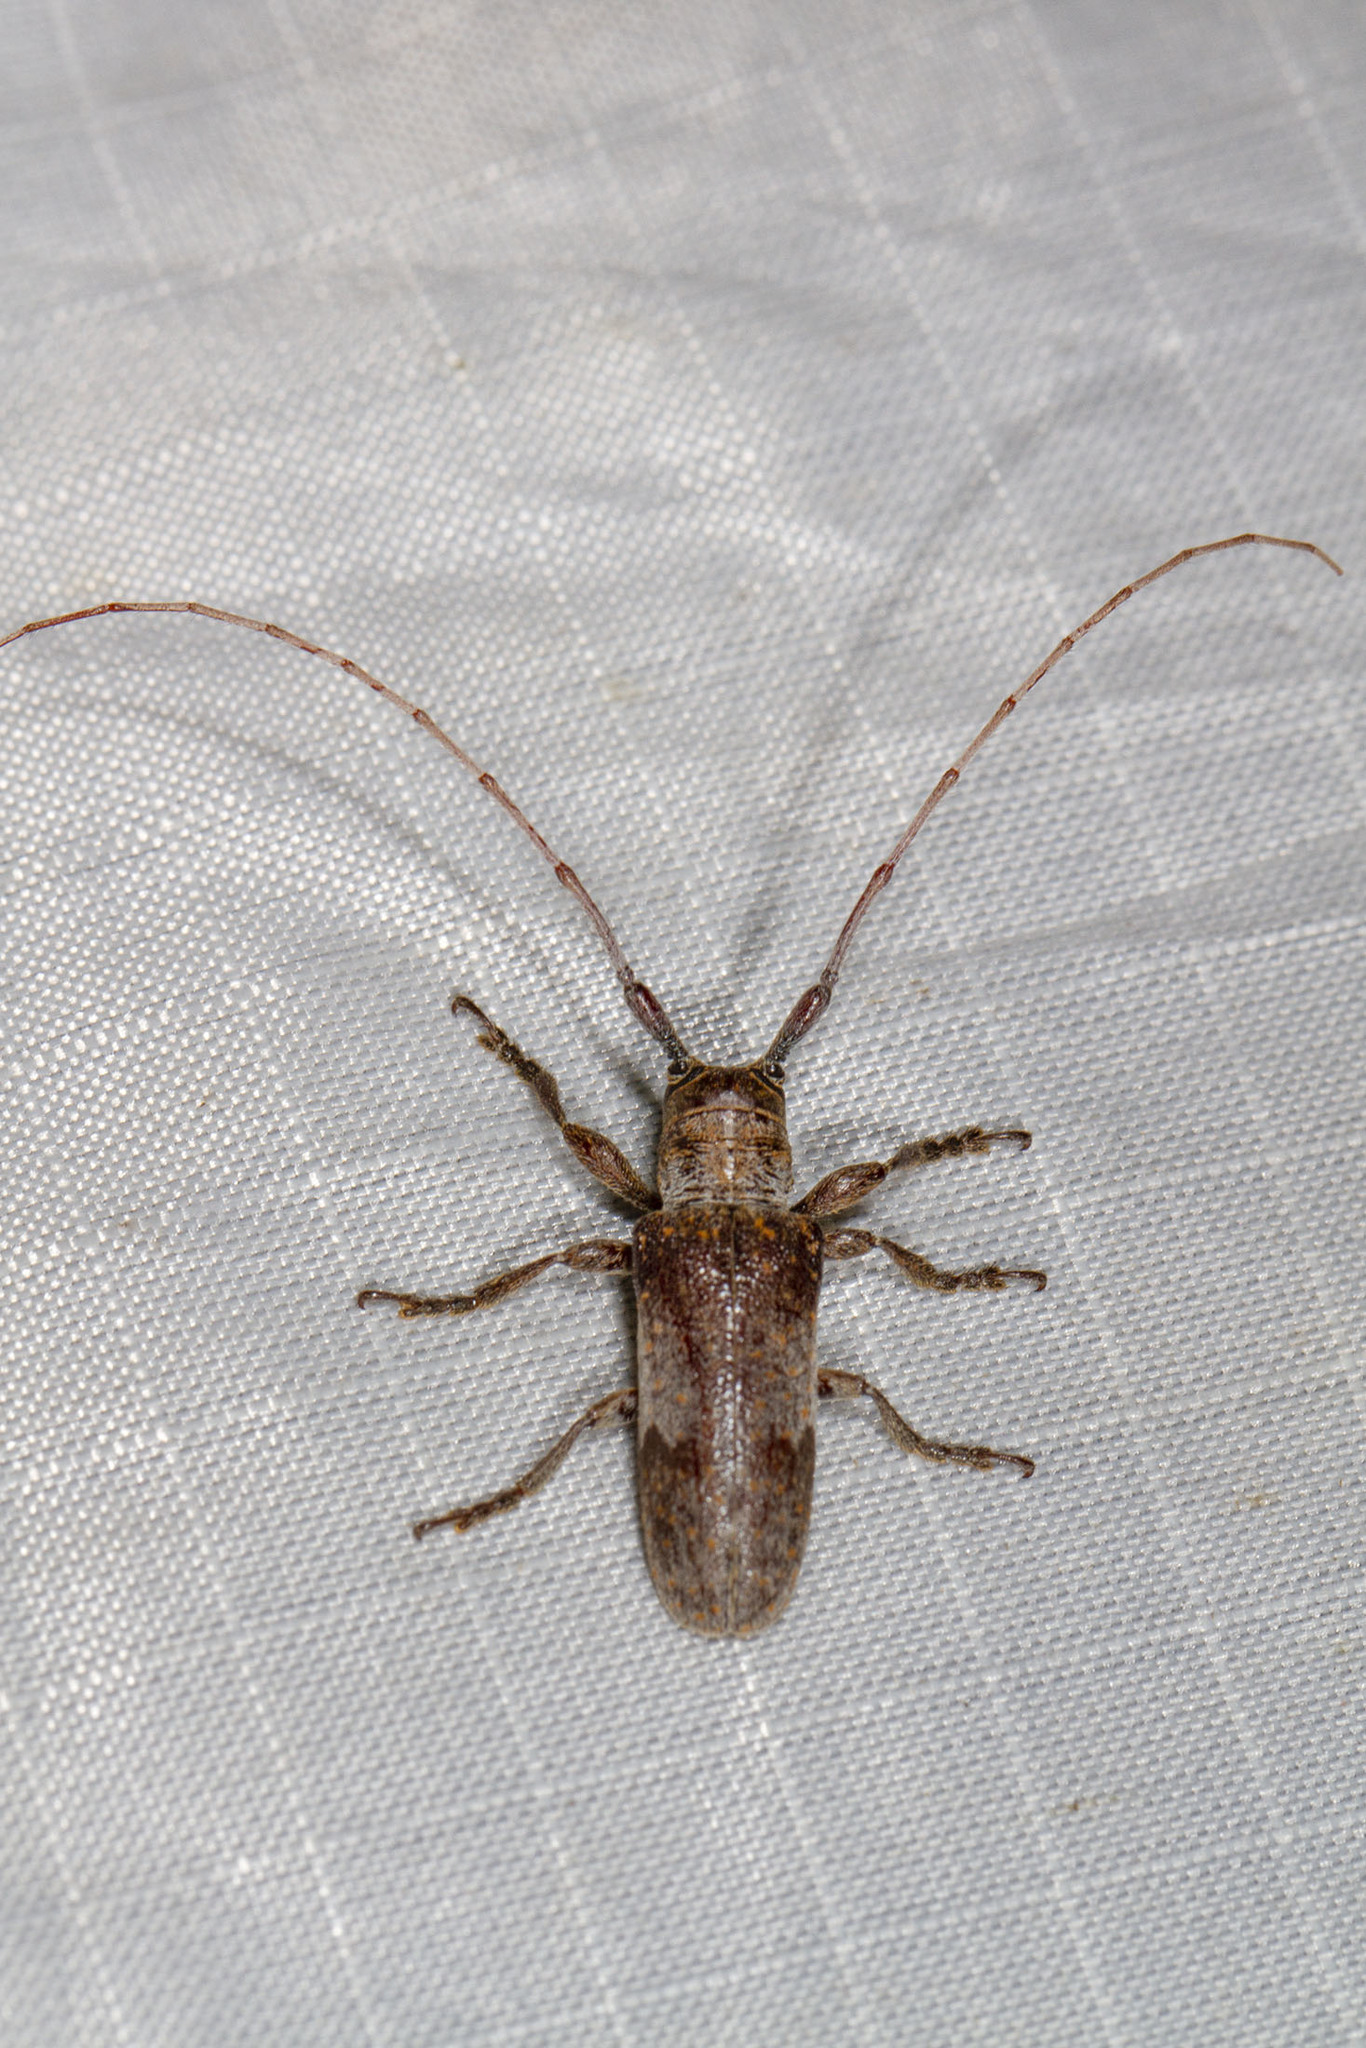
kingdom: Animalia
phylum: Arthropoda
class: Insecta
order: Coleoptera
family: Cerambycidae
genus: Oncideres
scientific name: Oncideres cingulata
